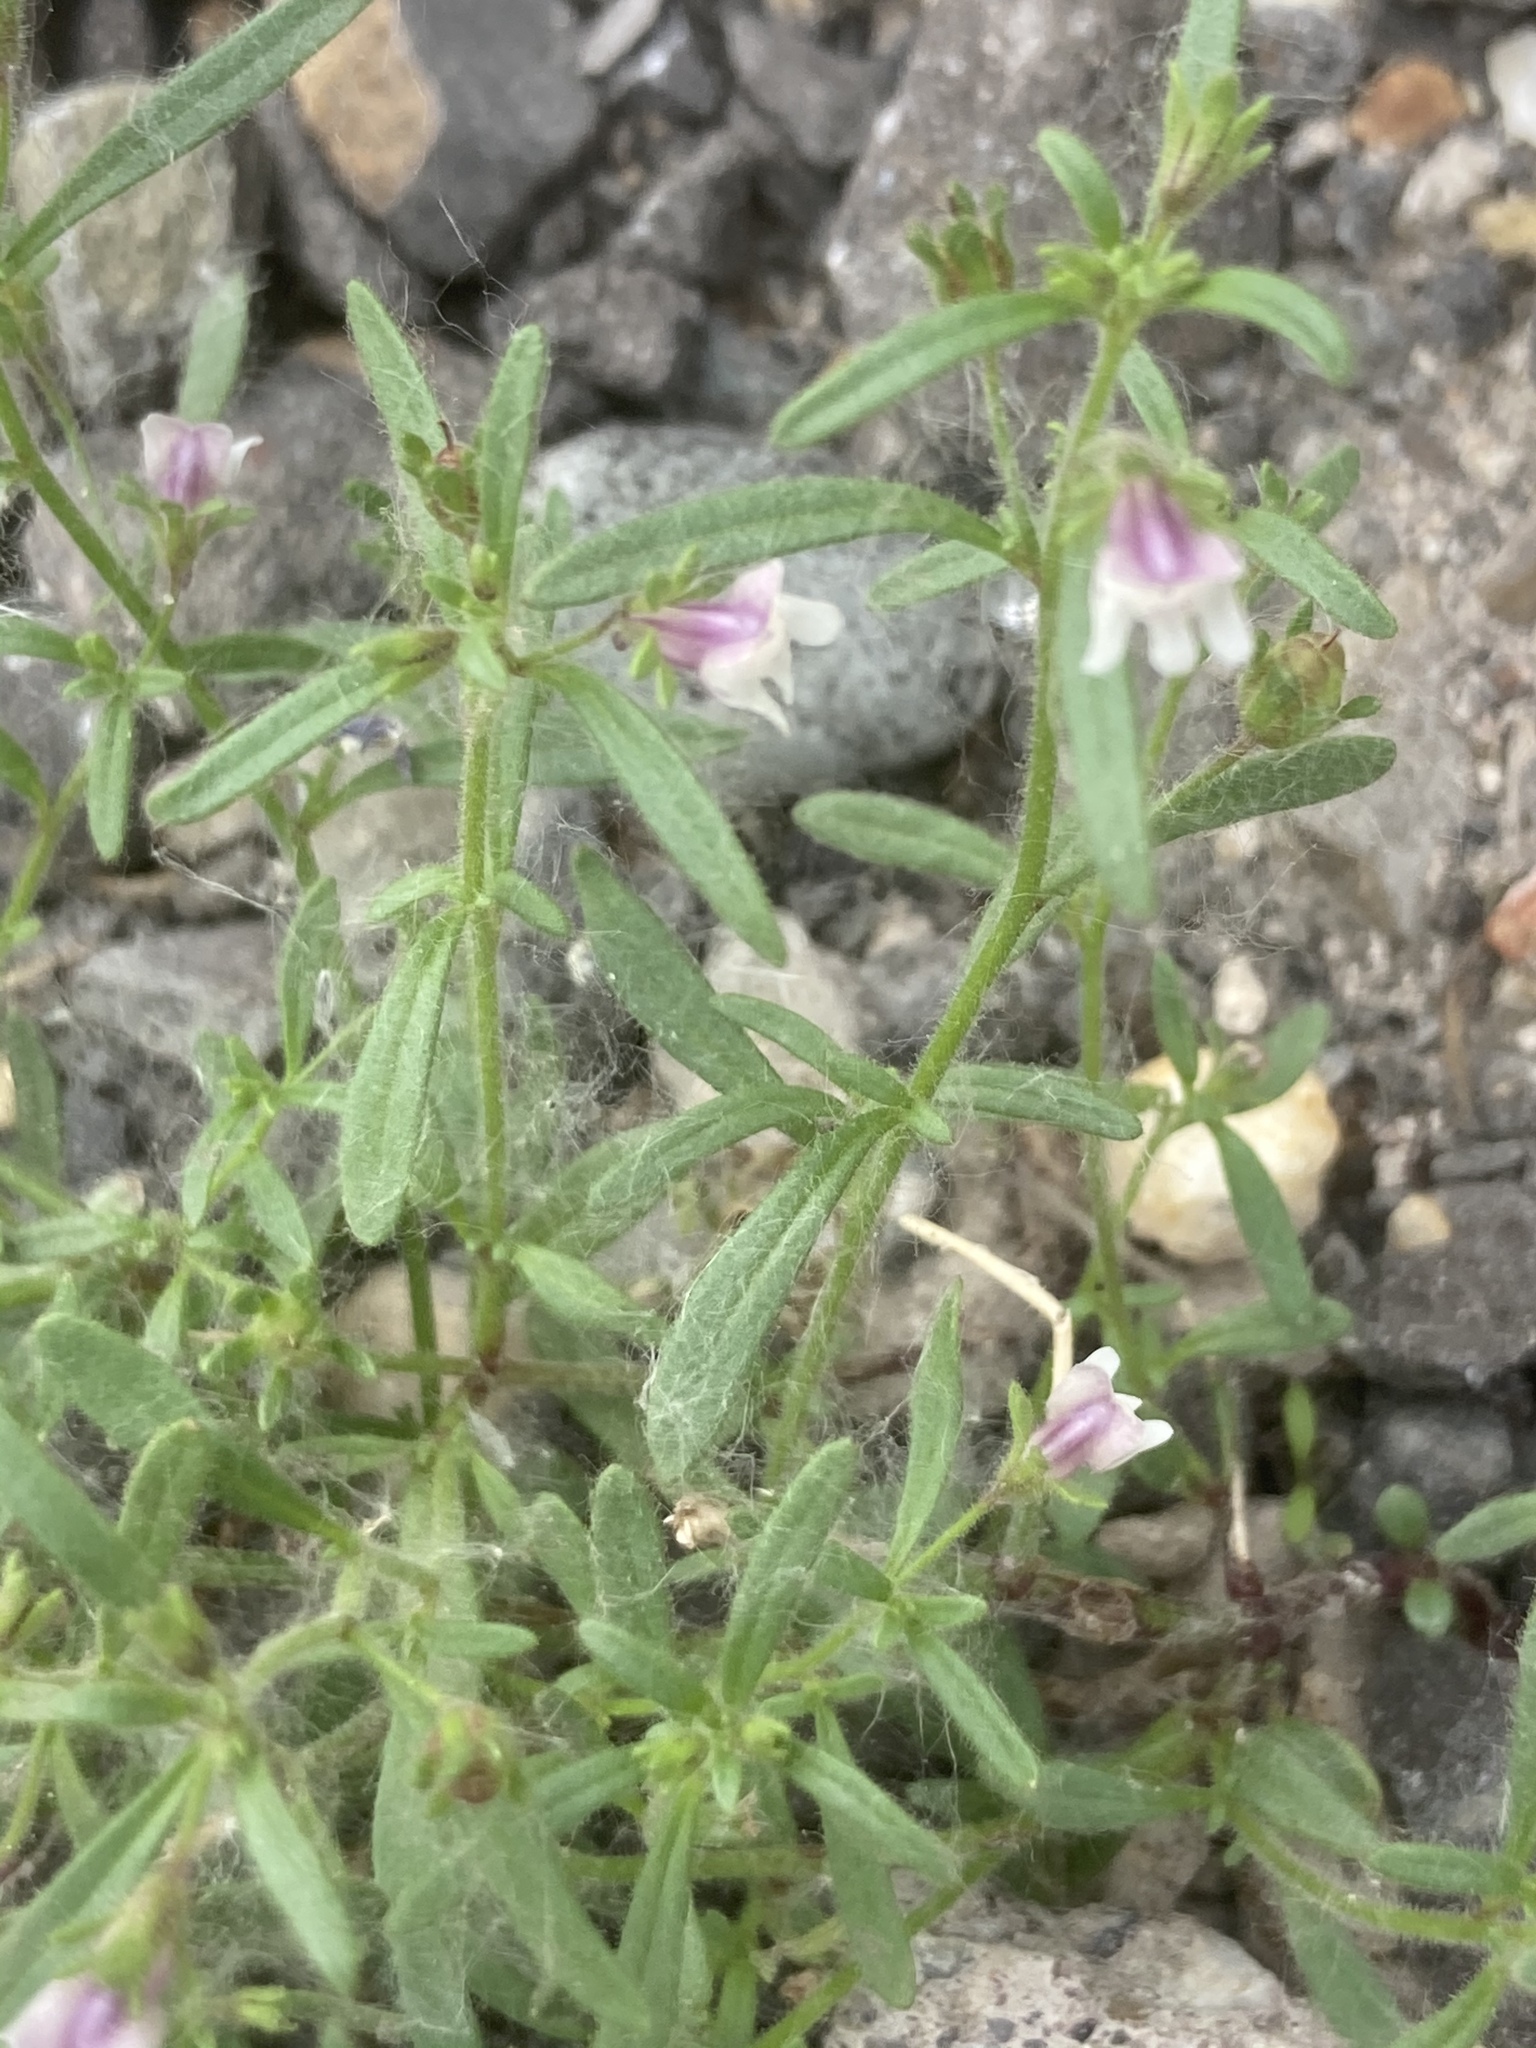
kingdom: Plantae
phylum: Tracheophyta
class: Magnoliopsida
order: Lamiales
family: Plantaginaceae
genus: Chaenorhinum
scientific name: Chaenorhinum minus
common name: Dwarf snapdragon
